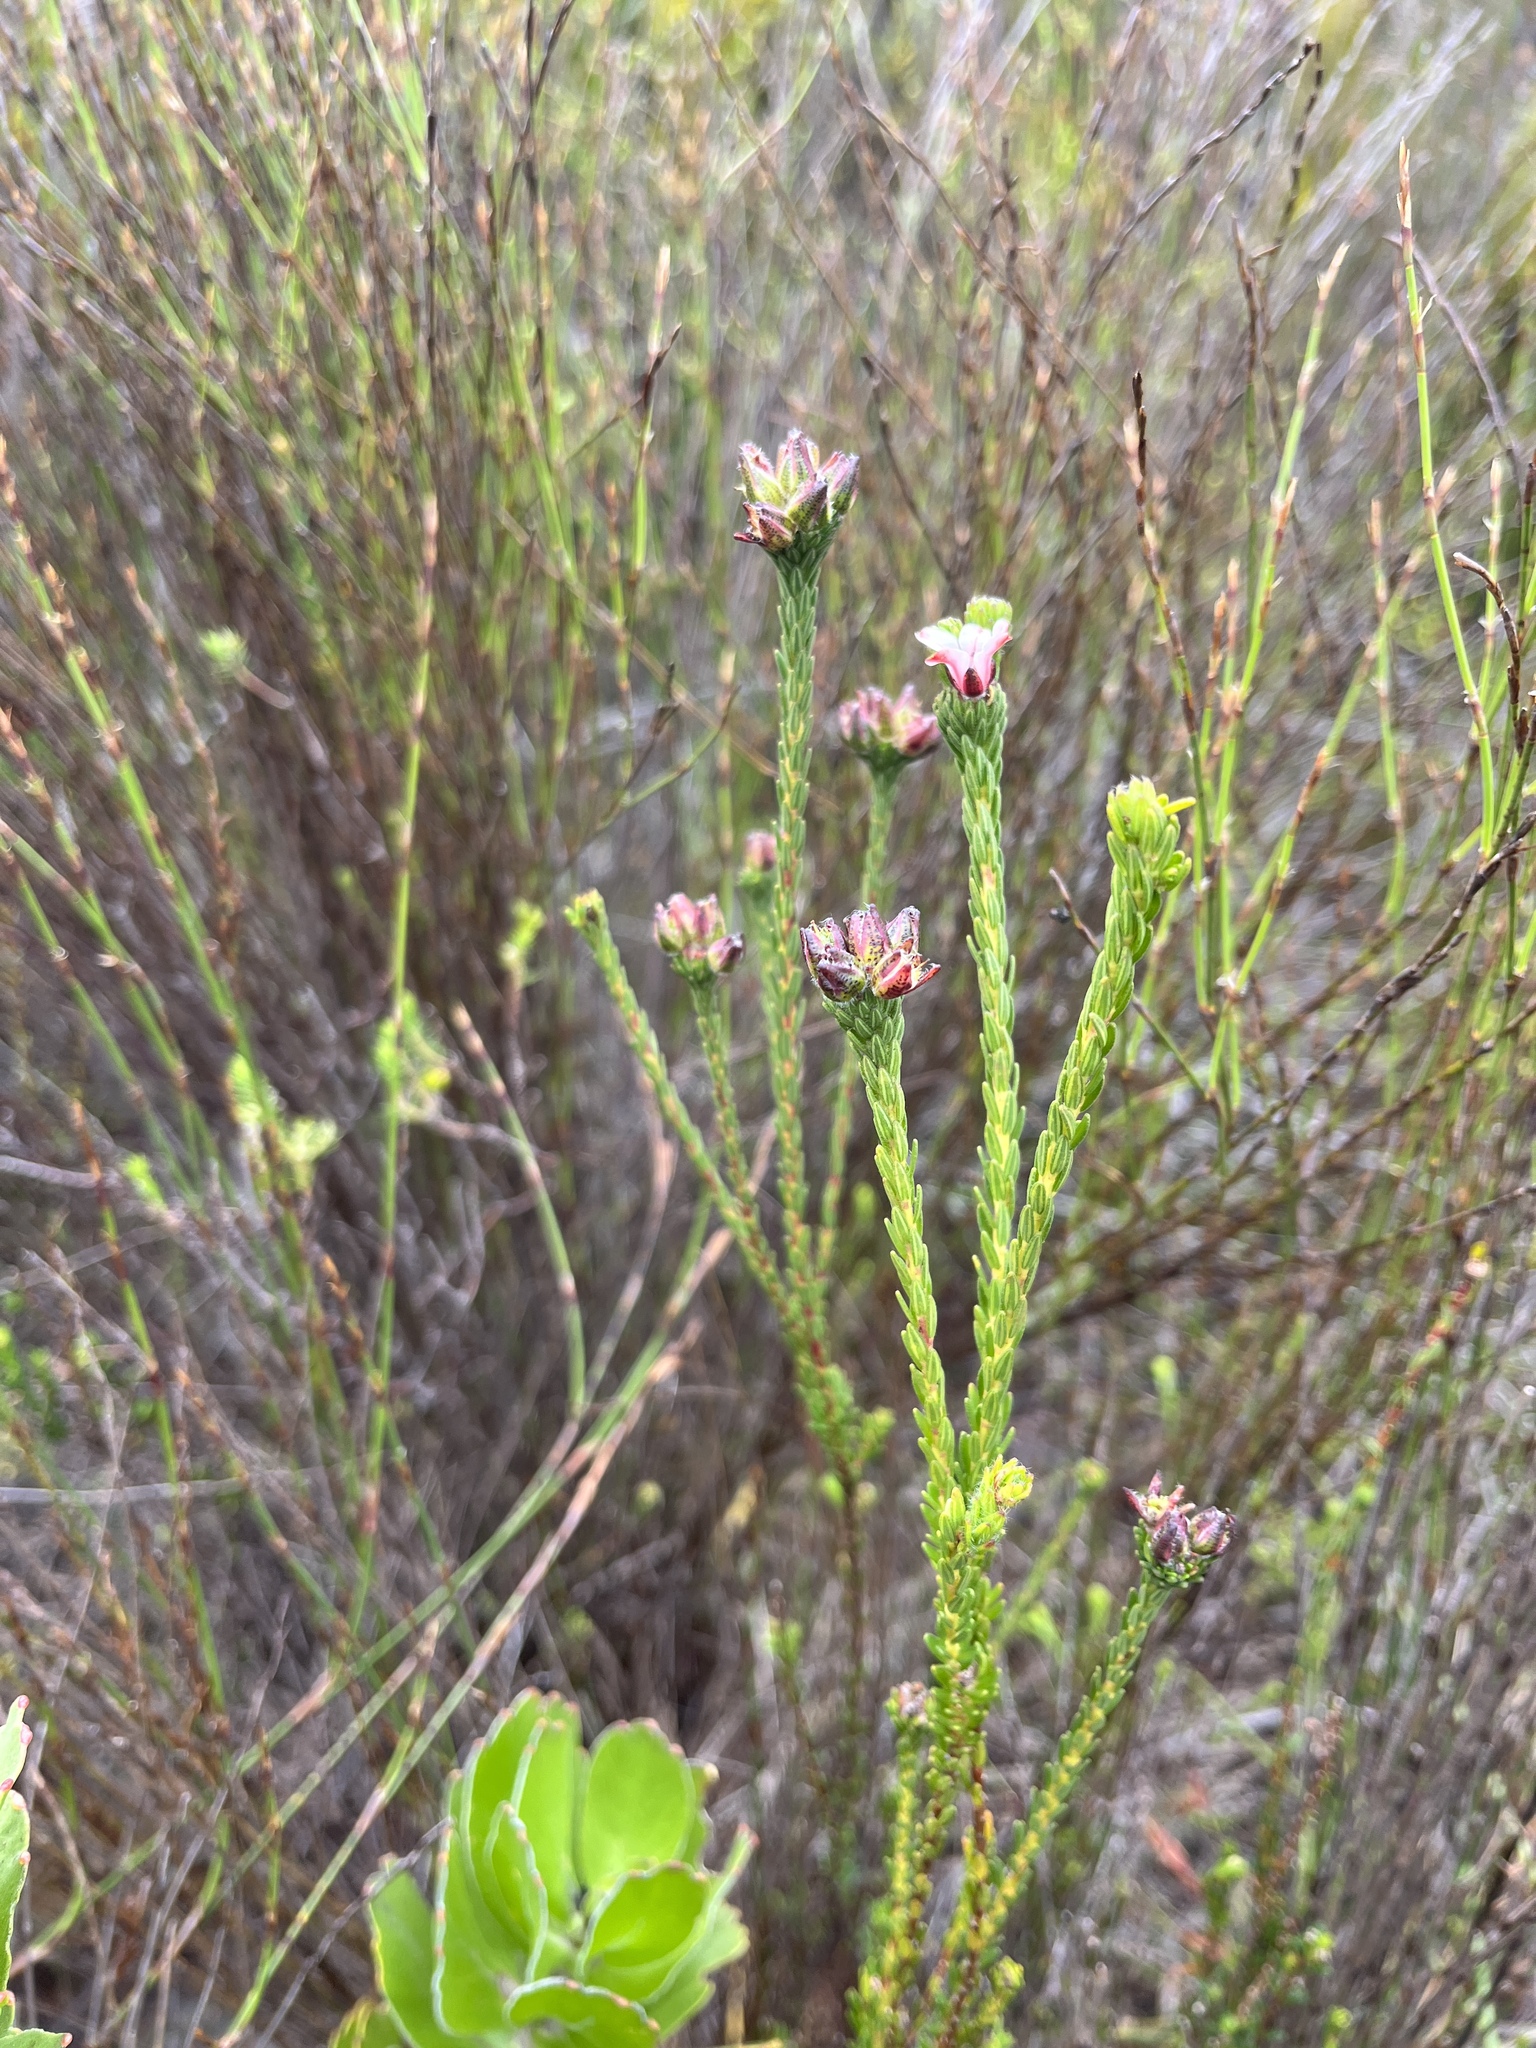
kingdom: Plantae
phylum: Tracheophyta
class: Magnoliopsida
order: Sapindales
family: Rutaceae
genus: Adenandra
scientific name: Adenandra villosa
